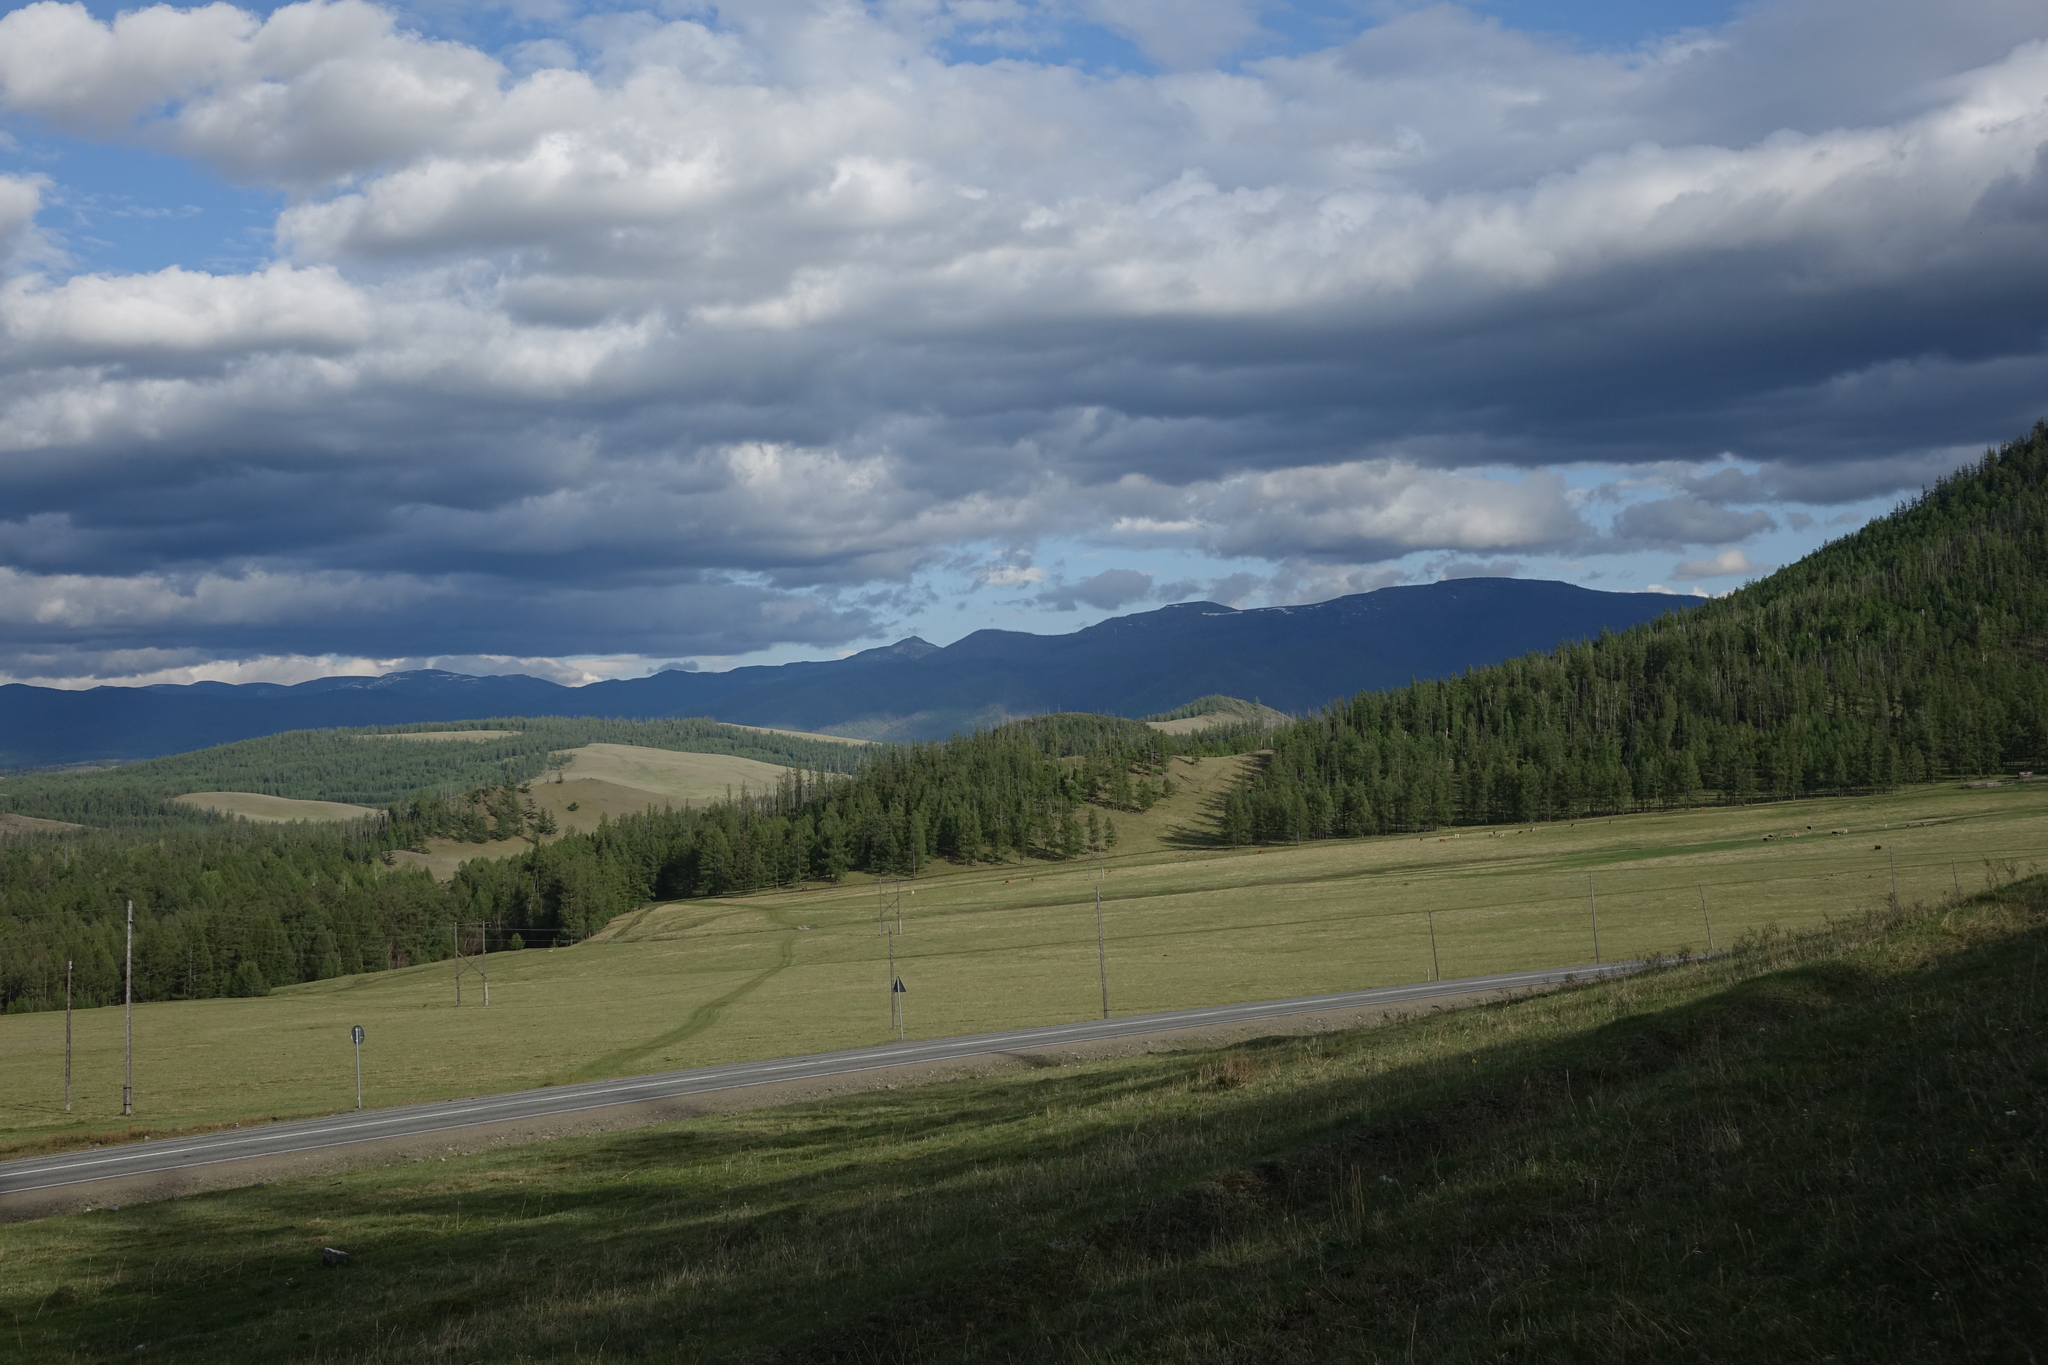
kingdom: Plantae
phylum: Tracheophyta
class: Pinopsida
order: Pinales
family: Pinaceae
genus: Larix
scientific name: Larix sibirica
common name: Siberian larch
